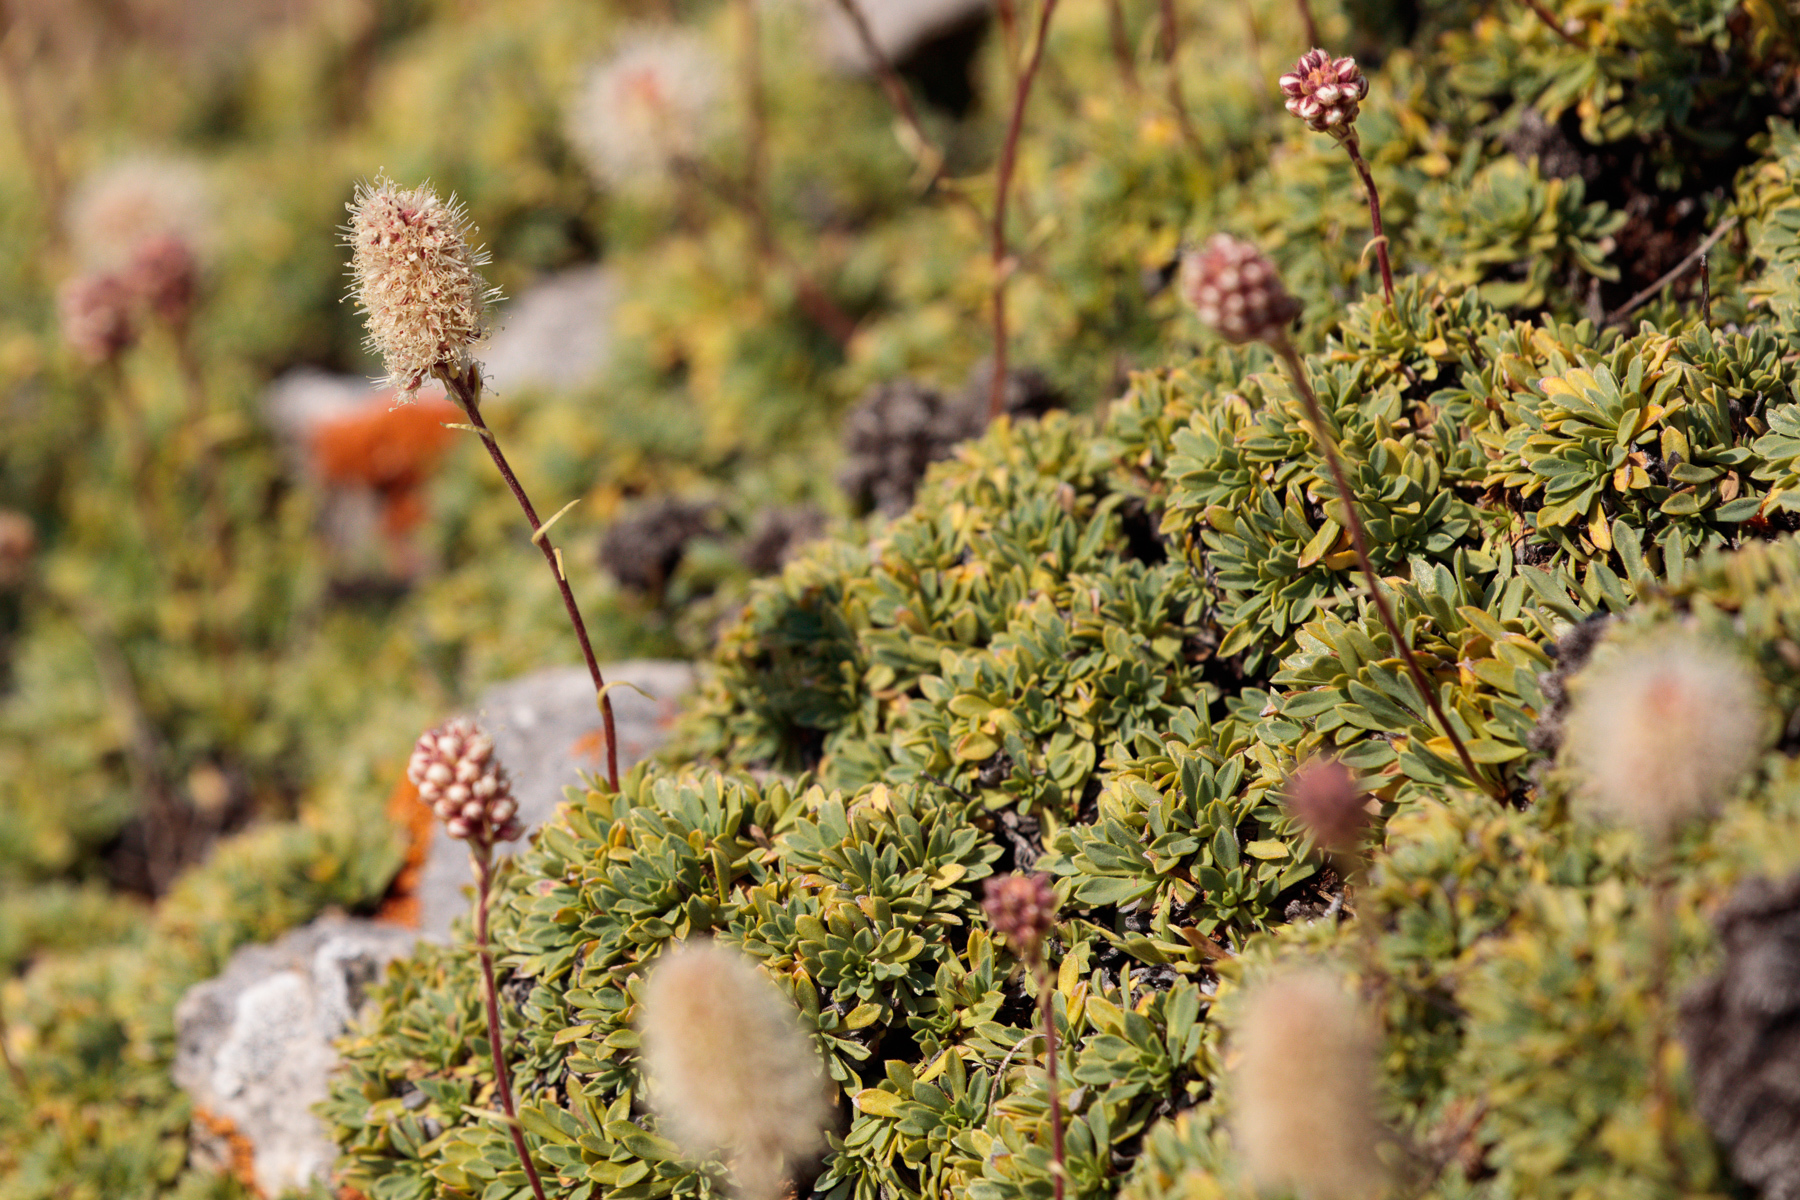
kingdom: Plantae
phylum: Tracheophyta
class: Magnoliopsida
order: Rosales
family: Rosaceae
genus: Petrophytum
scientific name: Petrophytum caespitosum
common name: Mat rockspirea
